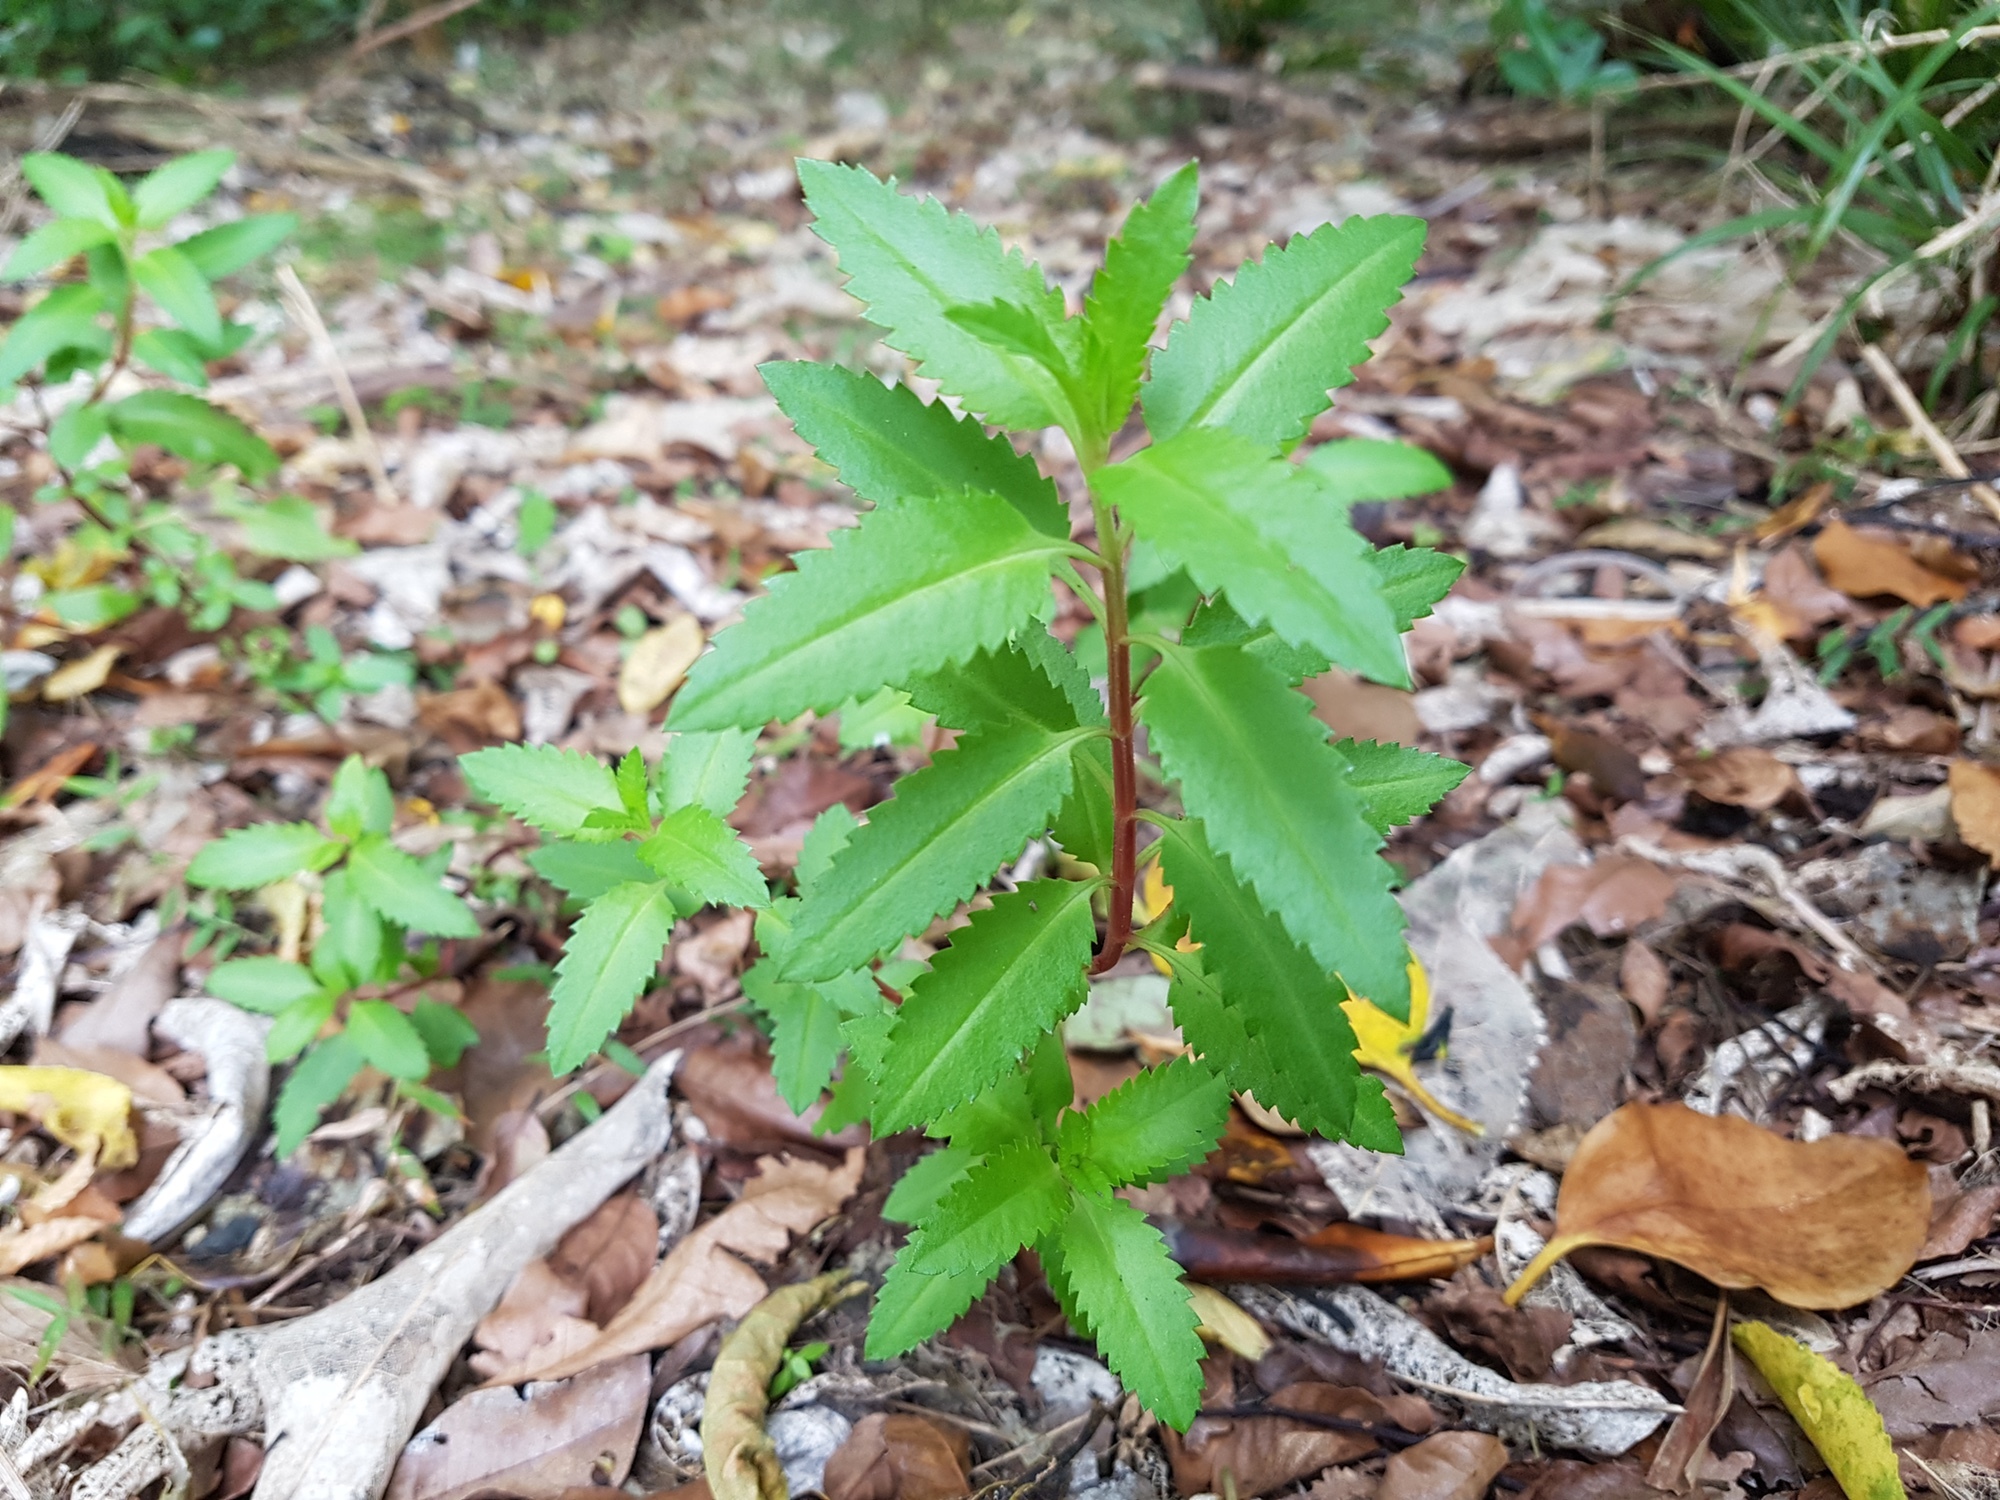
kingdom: Plantae
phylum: Tracheophyta
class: Magnoliopsida
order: Saxifragales
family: Haloragaceae
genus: Haloragis
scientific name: Haloragis erecta
